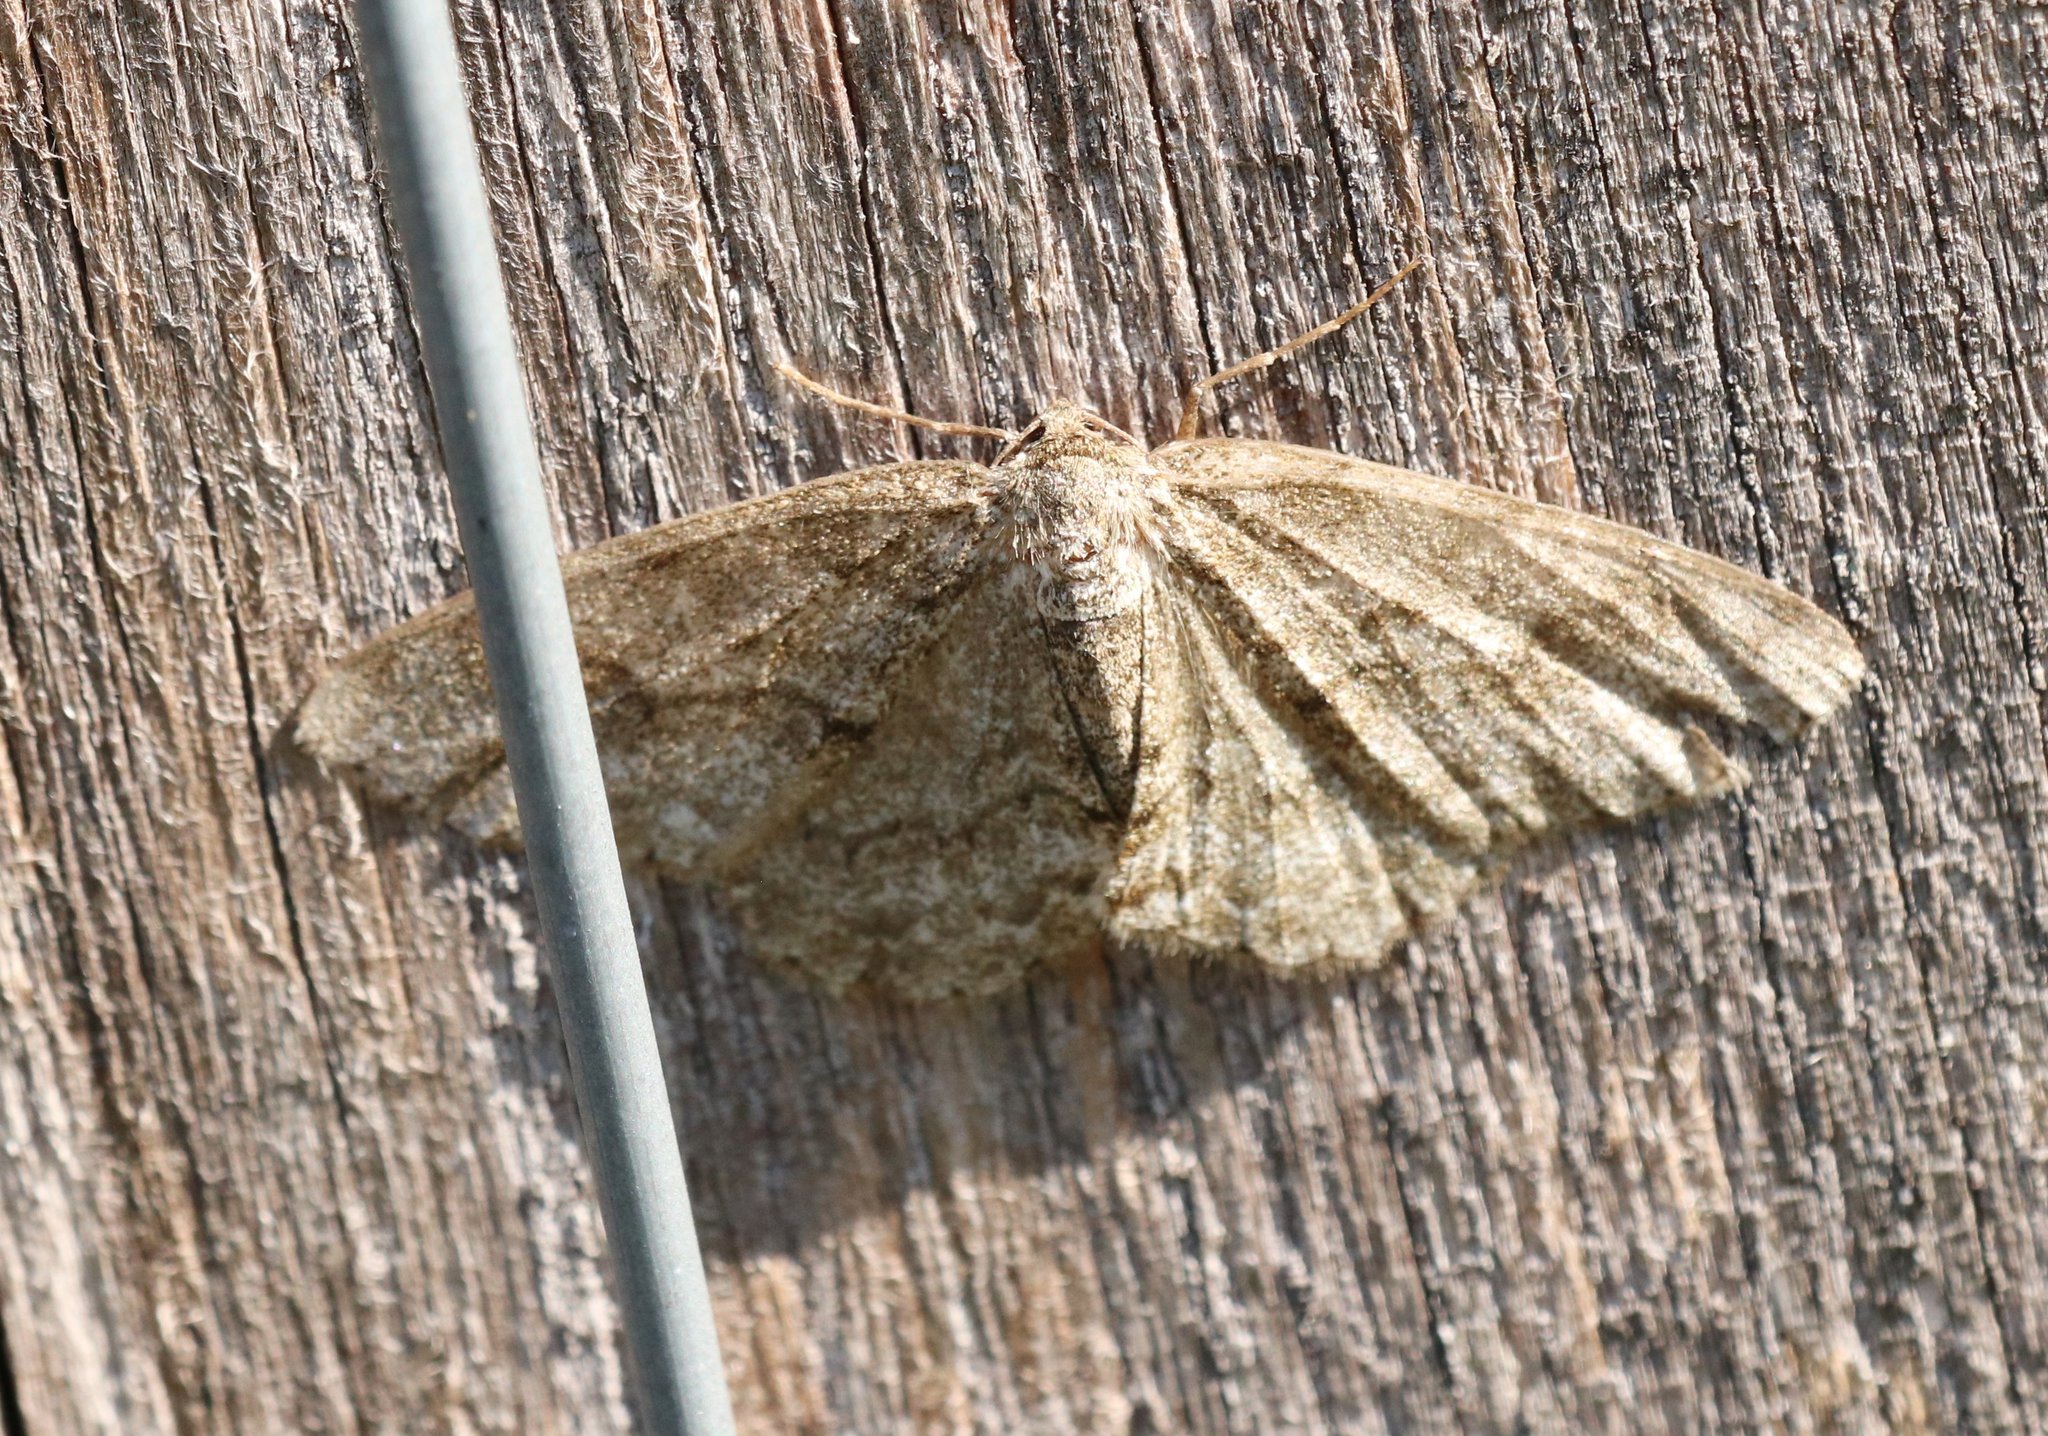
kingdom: Animalia
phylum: Arthropoda
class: Insecta
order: Lepidoptera
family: Geometridae
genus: Ectropis
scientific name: Ectropis crepuscularia
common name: Engrailed
